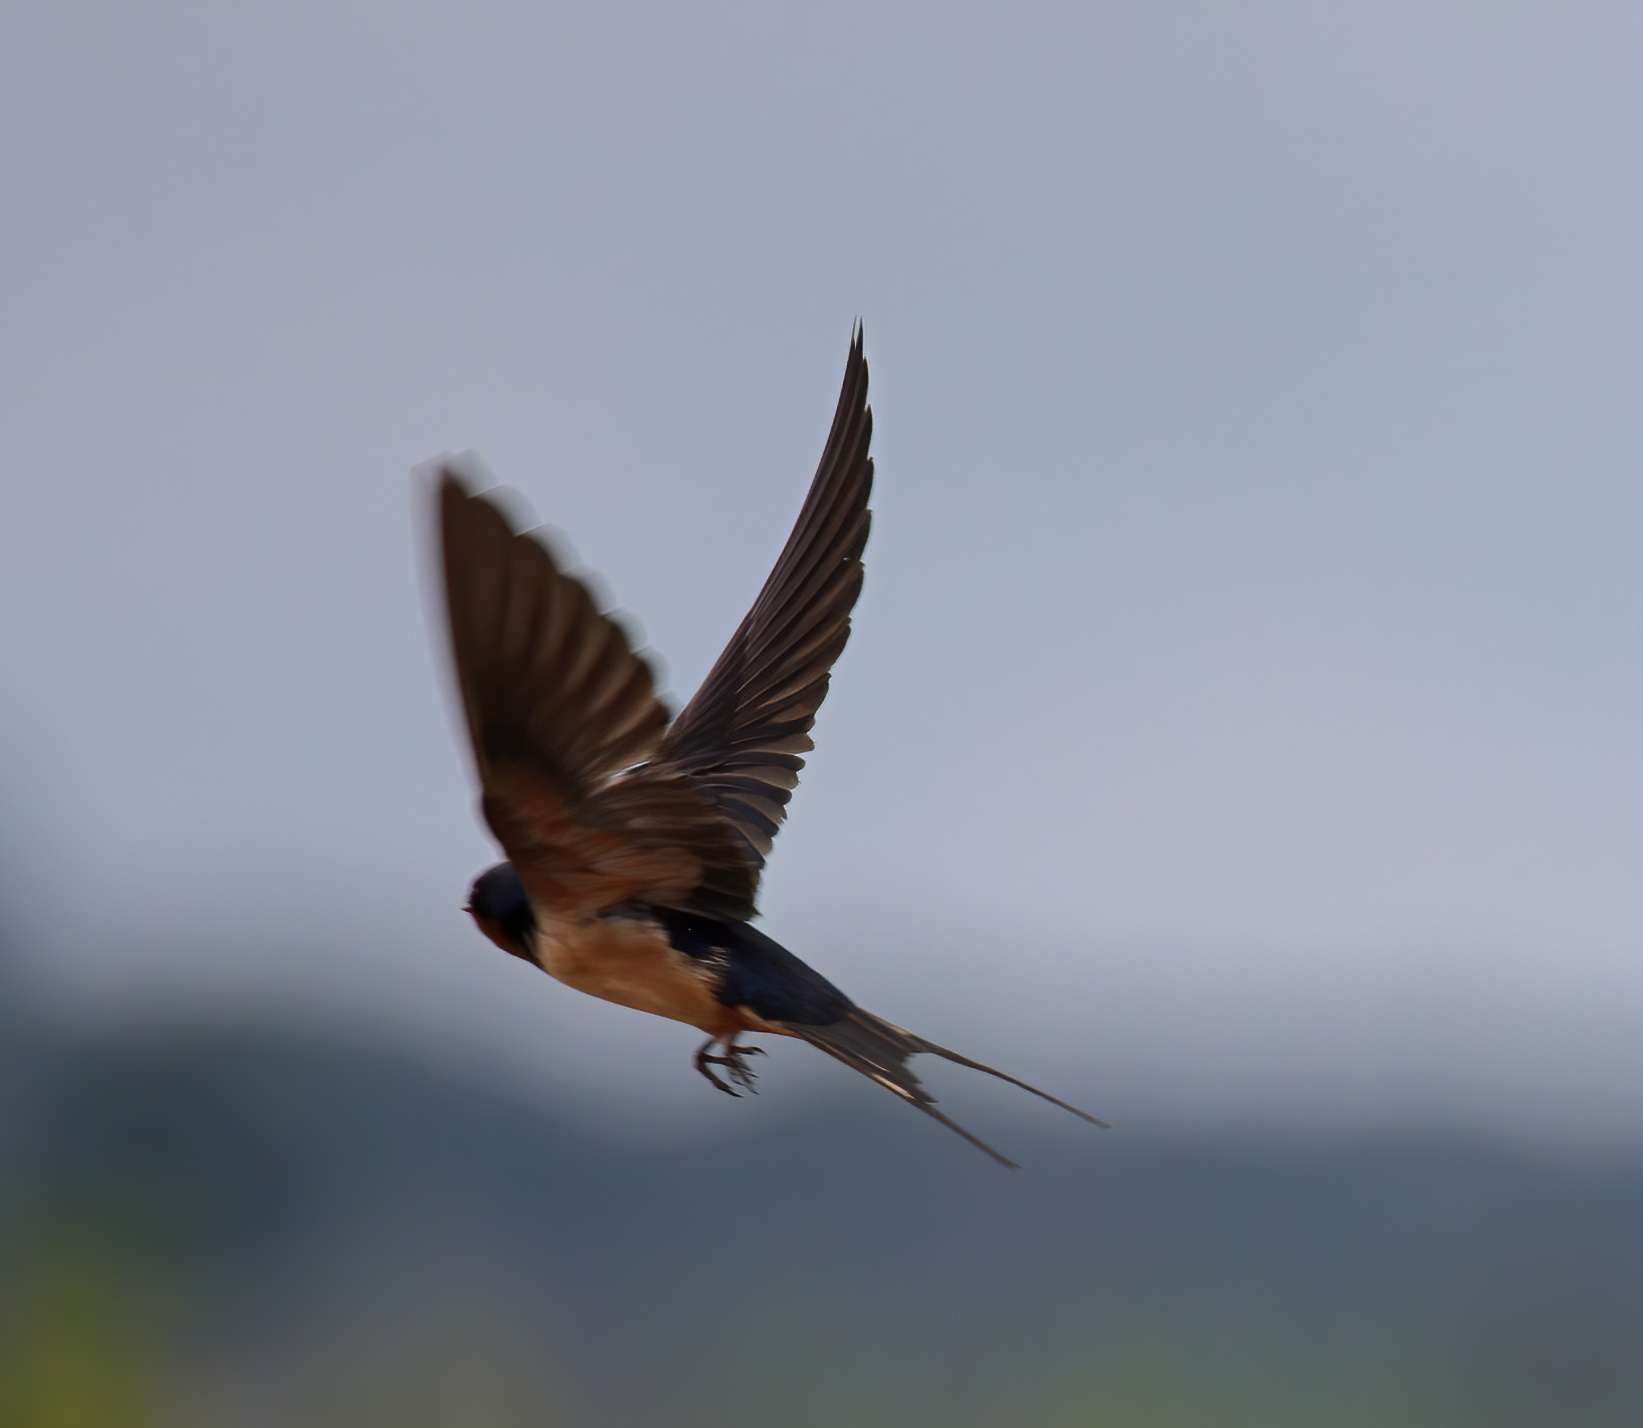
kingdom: Animalia
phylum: Chordata
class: Aves
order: Passeriformes
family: Hirundinidae
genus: Hirundo
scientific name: Hirundo rustica
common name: Barn swallow
